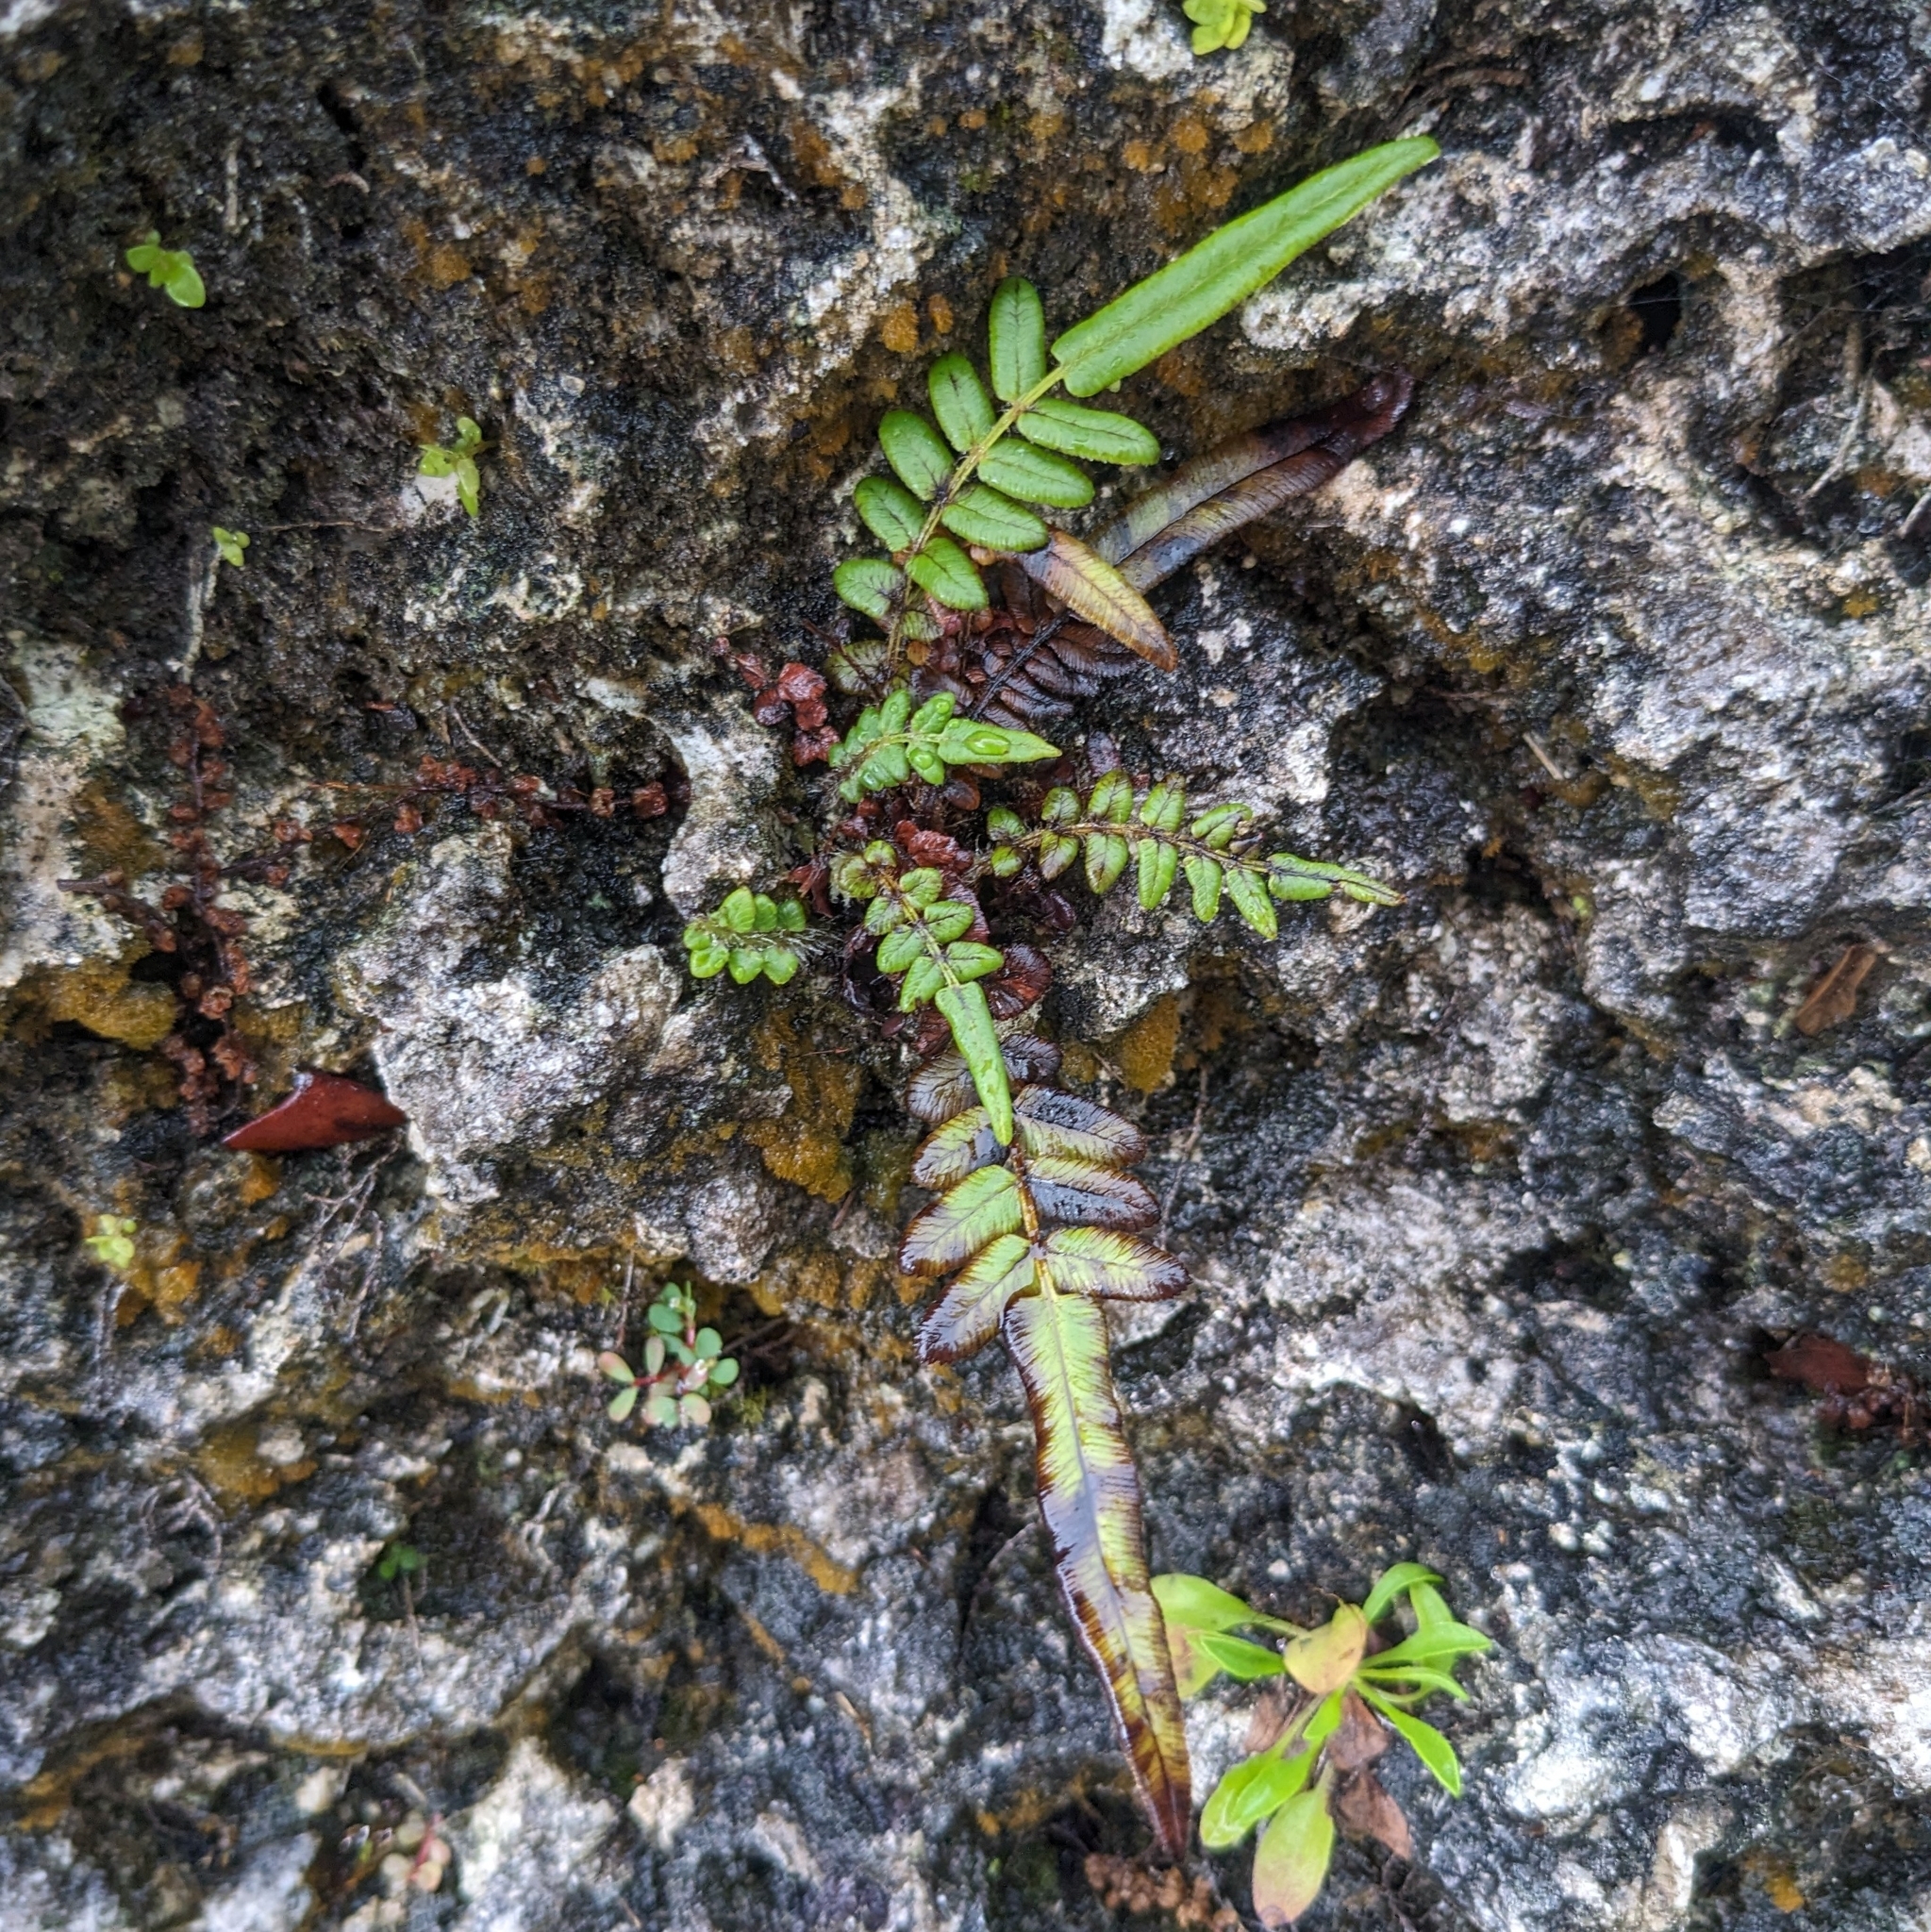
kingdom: Plantae
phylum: Tracheophyta
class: Polypodiopsida
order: Polypodiales
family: Pteridaceae
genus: Pteris
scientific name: Pteris vittata
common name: Ladder brake
